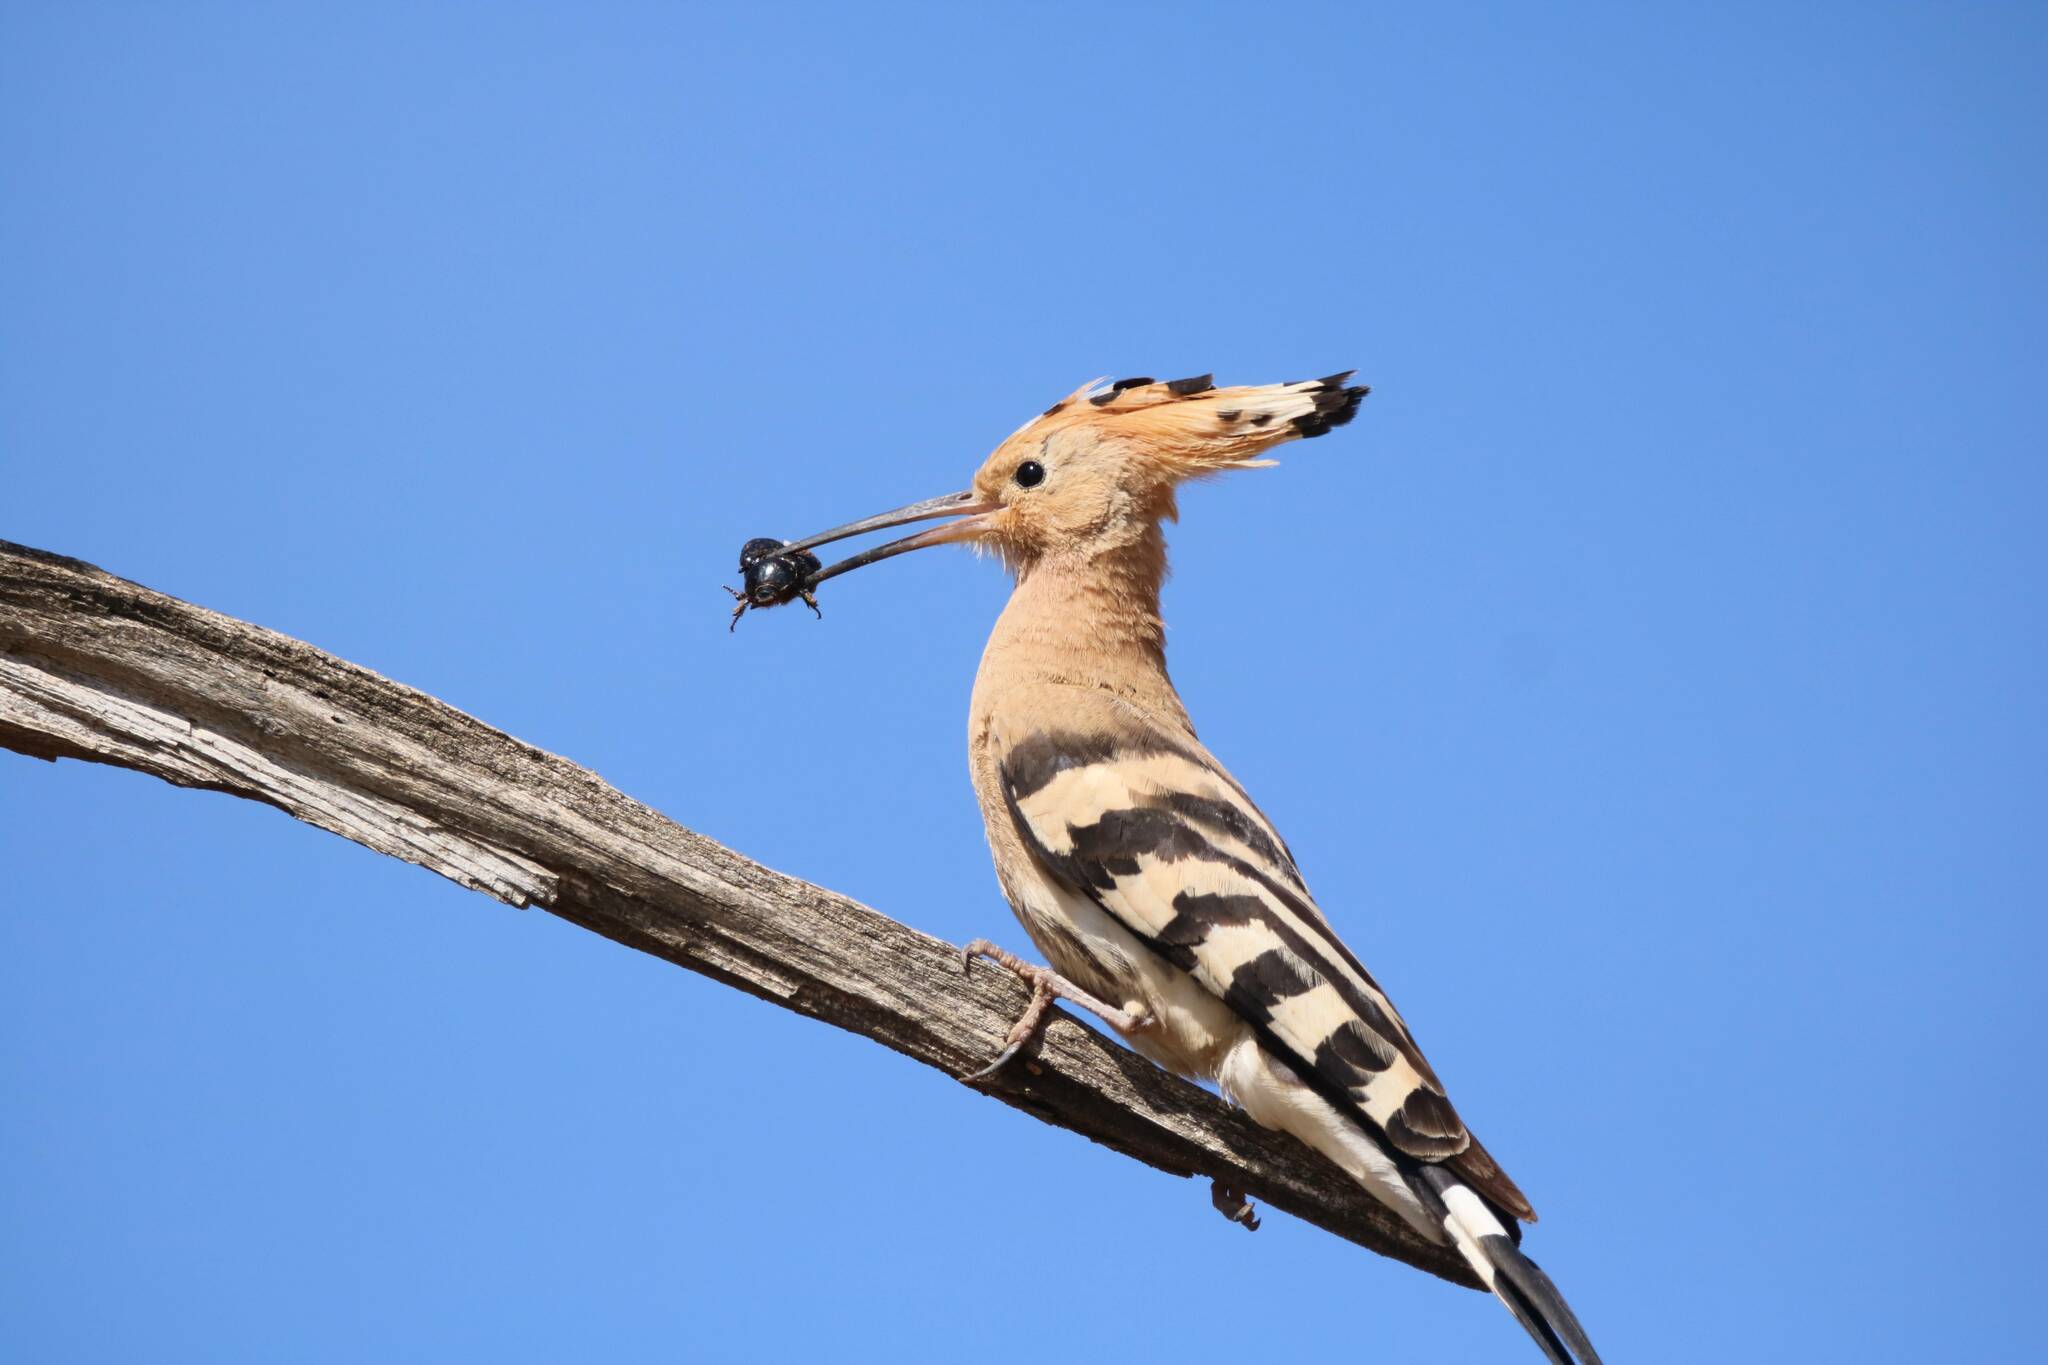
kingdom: Animalia
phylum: Chordata
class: Aves
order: Bucerotiformes
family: Upupidae
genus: Upupa
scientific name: Upupa epops
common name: Eurasian hoopoe
